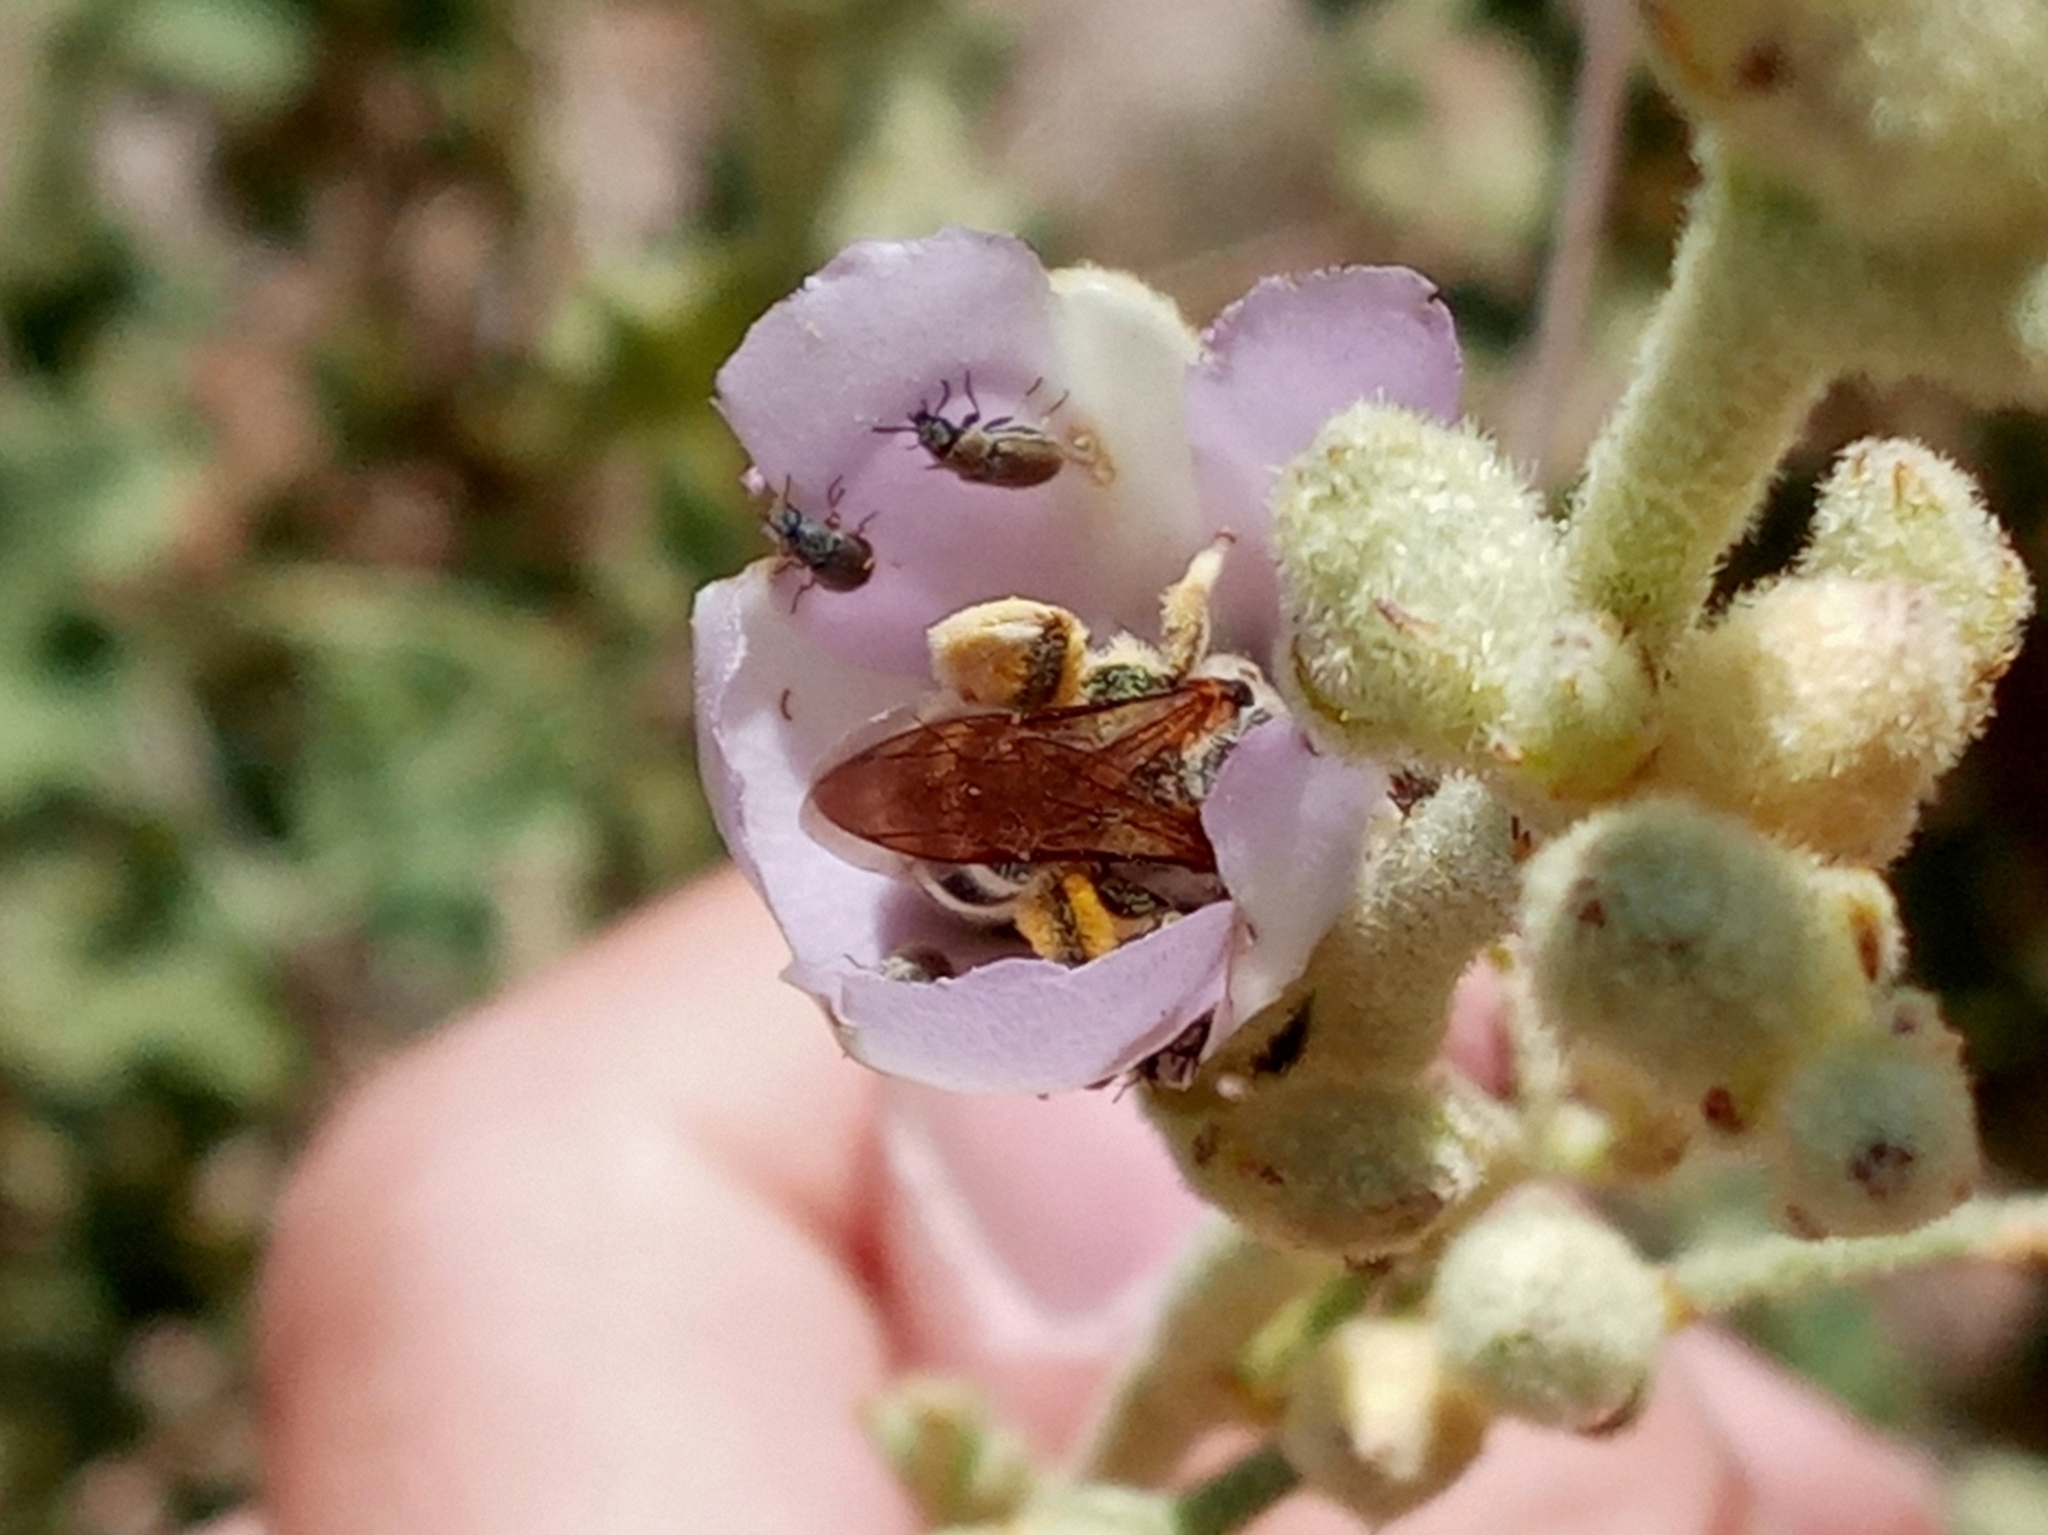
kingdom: Animalia
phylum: Arthropoda
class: Insecta
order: Hymenoptera
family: Halictidae
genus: Halictus
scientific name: Halictus farinosus
